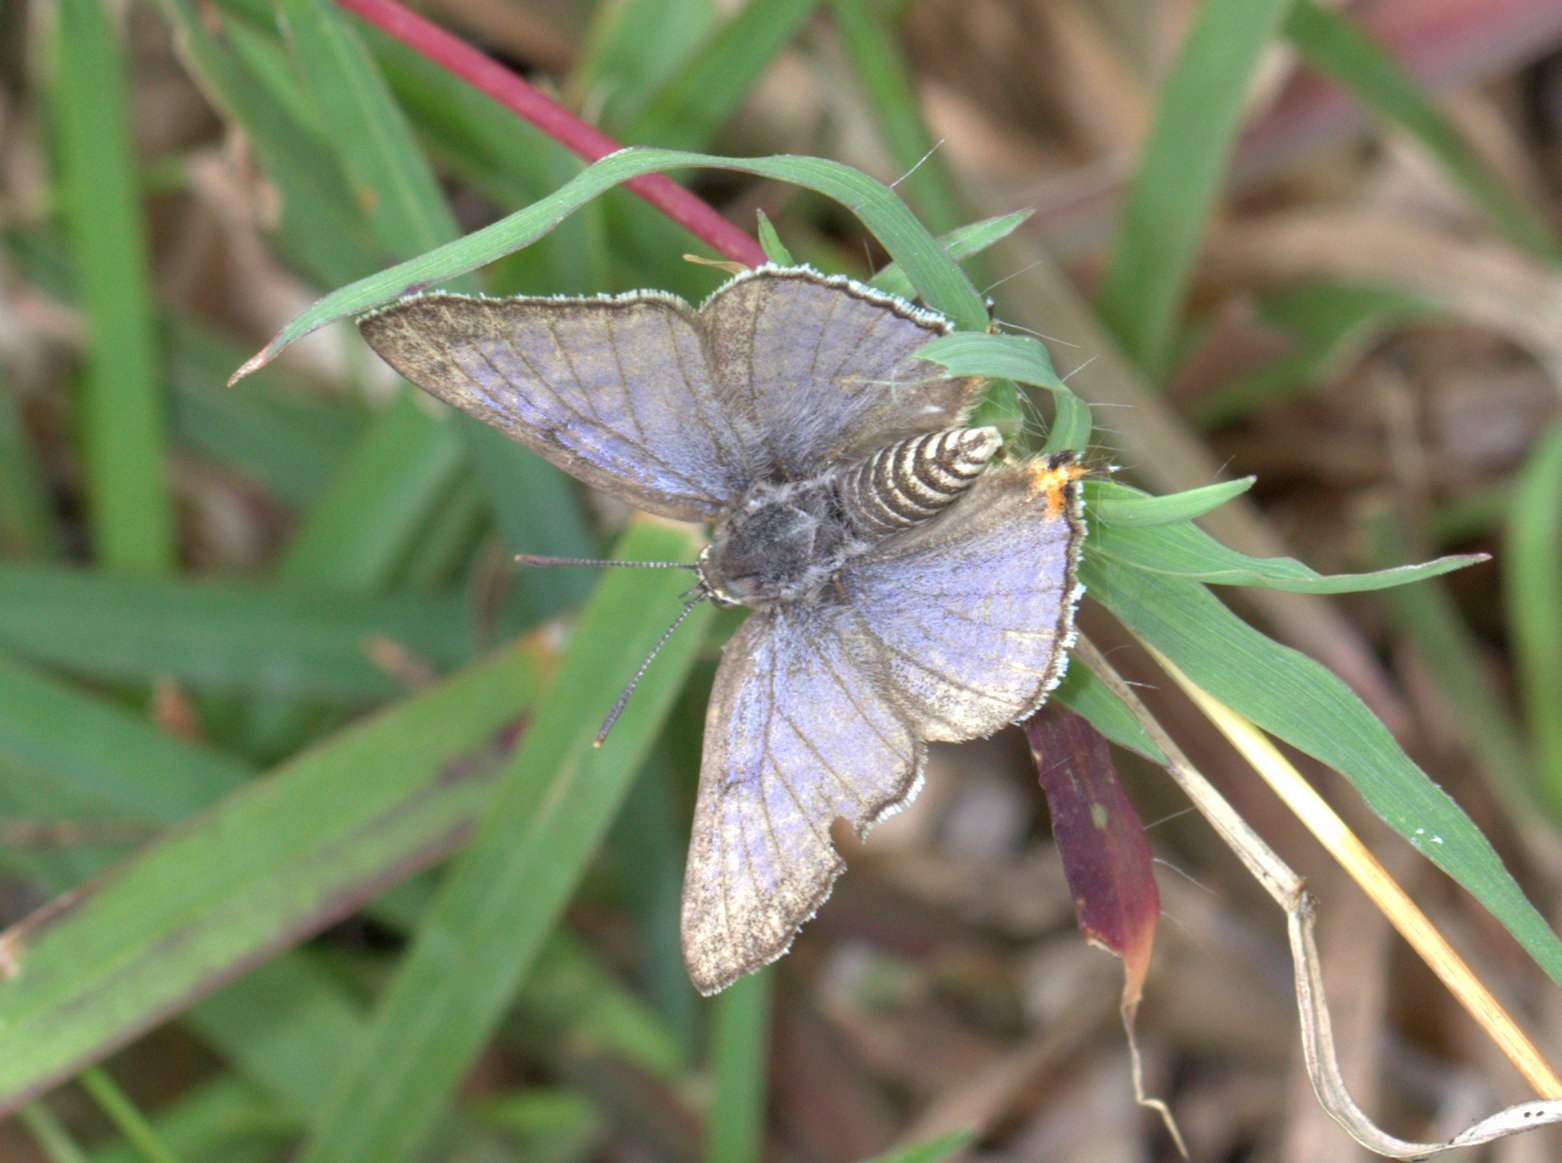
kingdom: Animalia
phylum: Arthropoda
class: Insecta
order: Lepidoptera
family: Lycaenidae
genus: Aphnaeus
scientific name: Aphnaeus lilacinus
